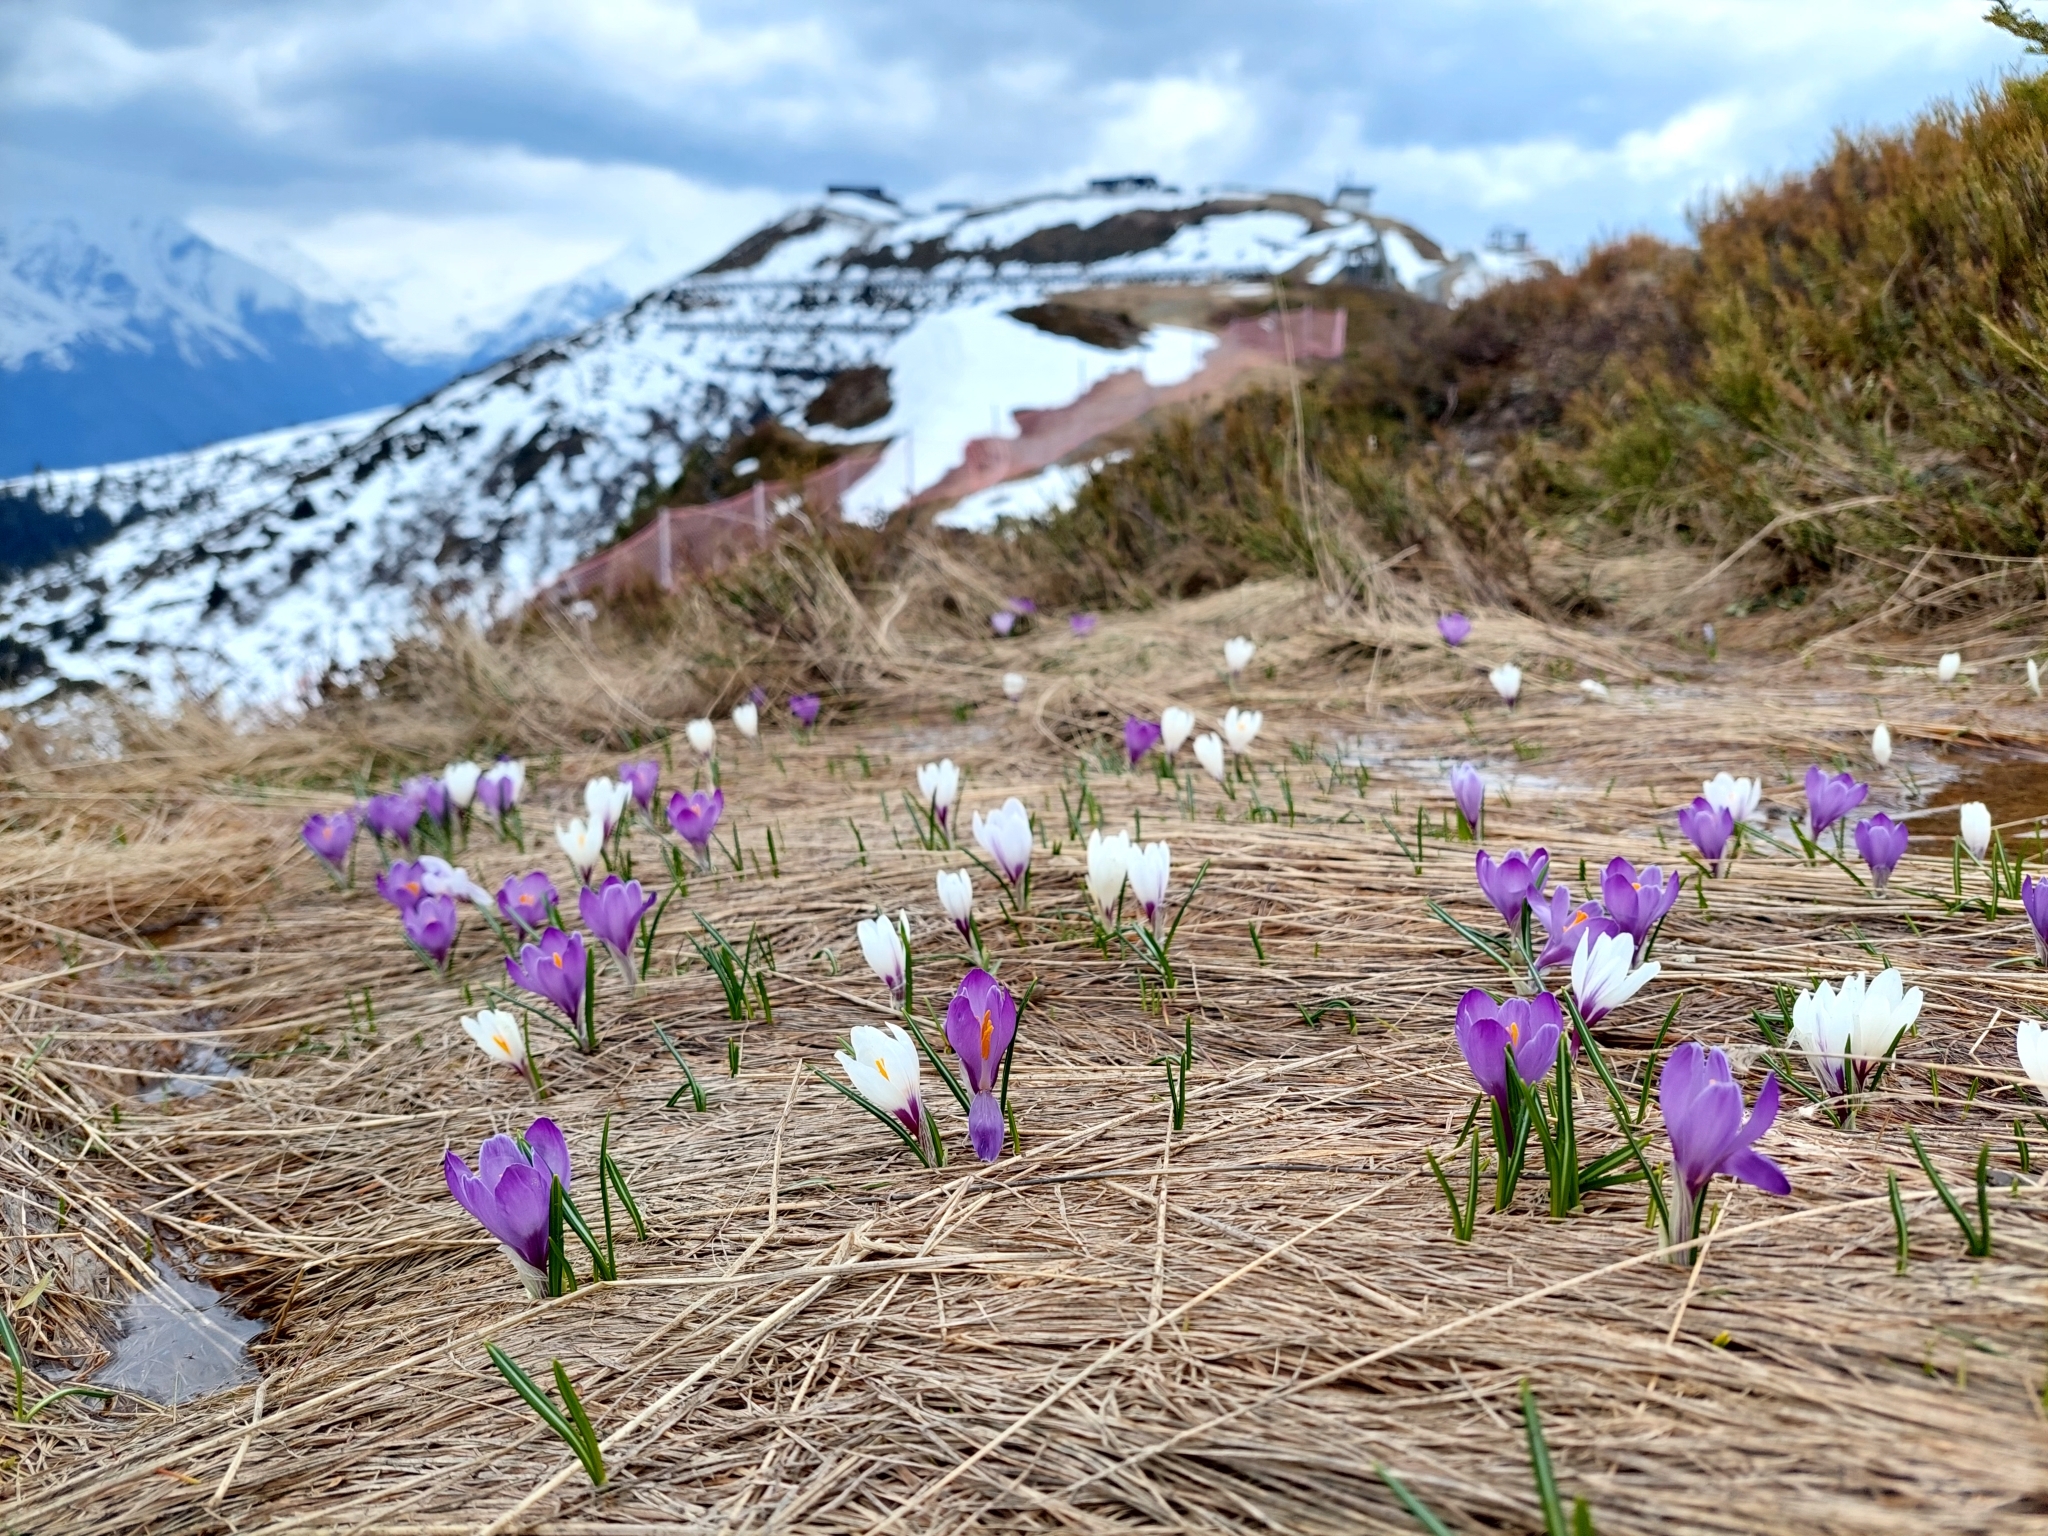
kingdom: Plantae
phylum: Tracheophyta
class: Liliopsida
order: Asparagales
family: Iridaceae
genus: Crocus
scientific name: Crocus vernus
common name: Spring crocus
